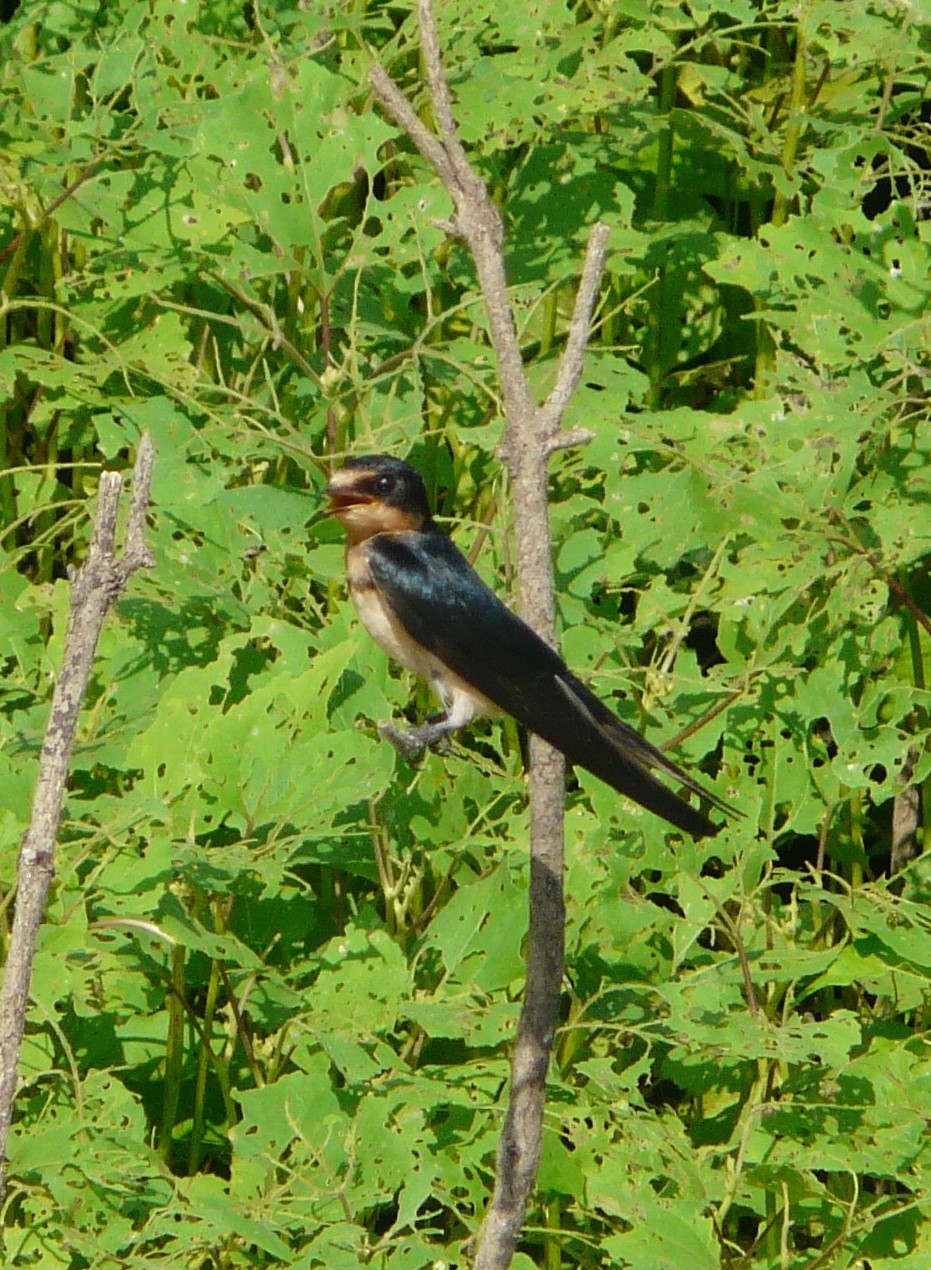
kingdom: Animalia
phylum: Chordata
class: Aves
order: Passeriformes
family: Hirundinidae
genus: Hirundo
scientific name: Hirundo rustica
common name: Barn swallow
